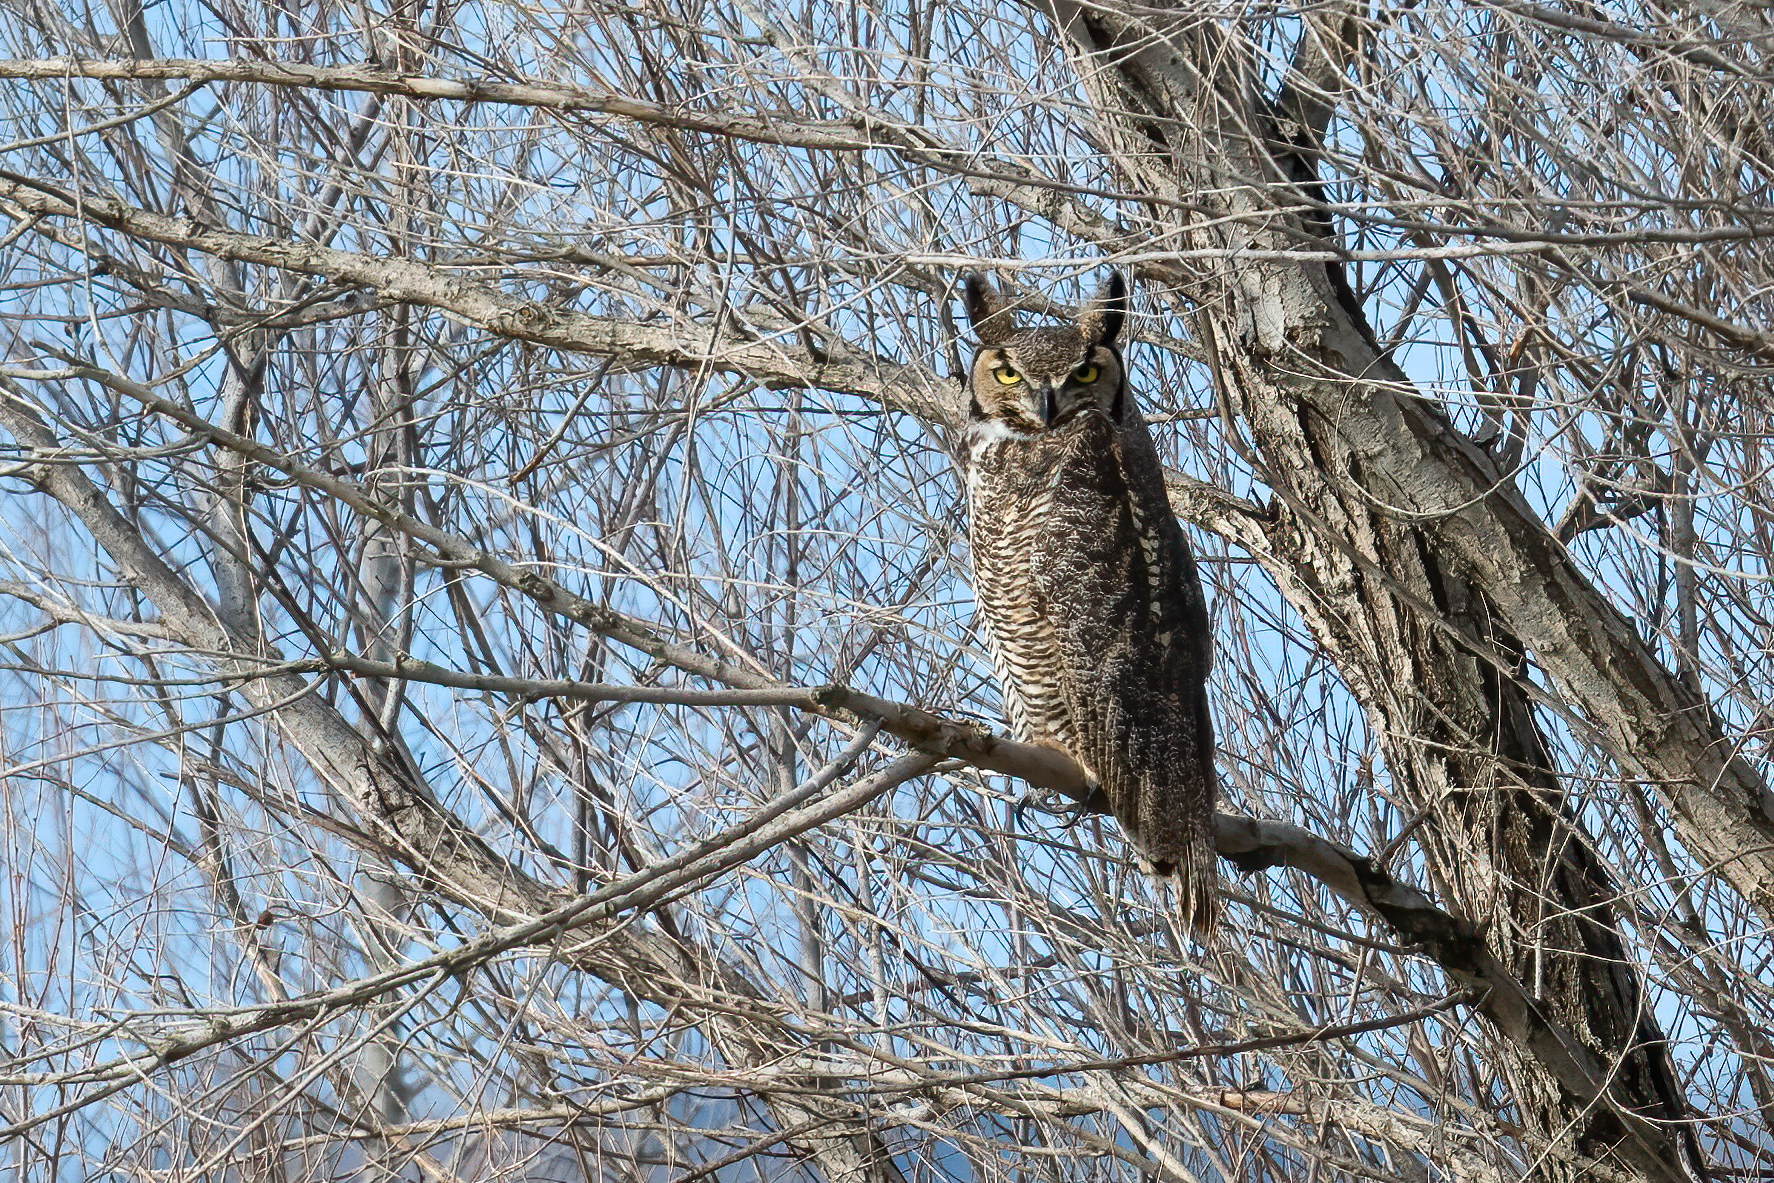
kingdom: Animalia
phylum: Chordata
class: Aves
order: Strigiformes
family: Strigidae
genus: Bubo
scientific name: Bubo virginianus
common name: Great horned owl
